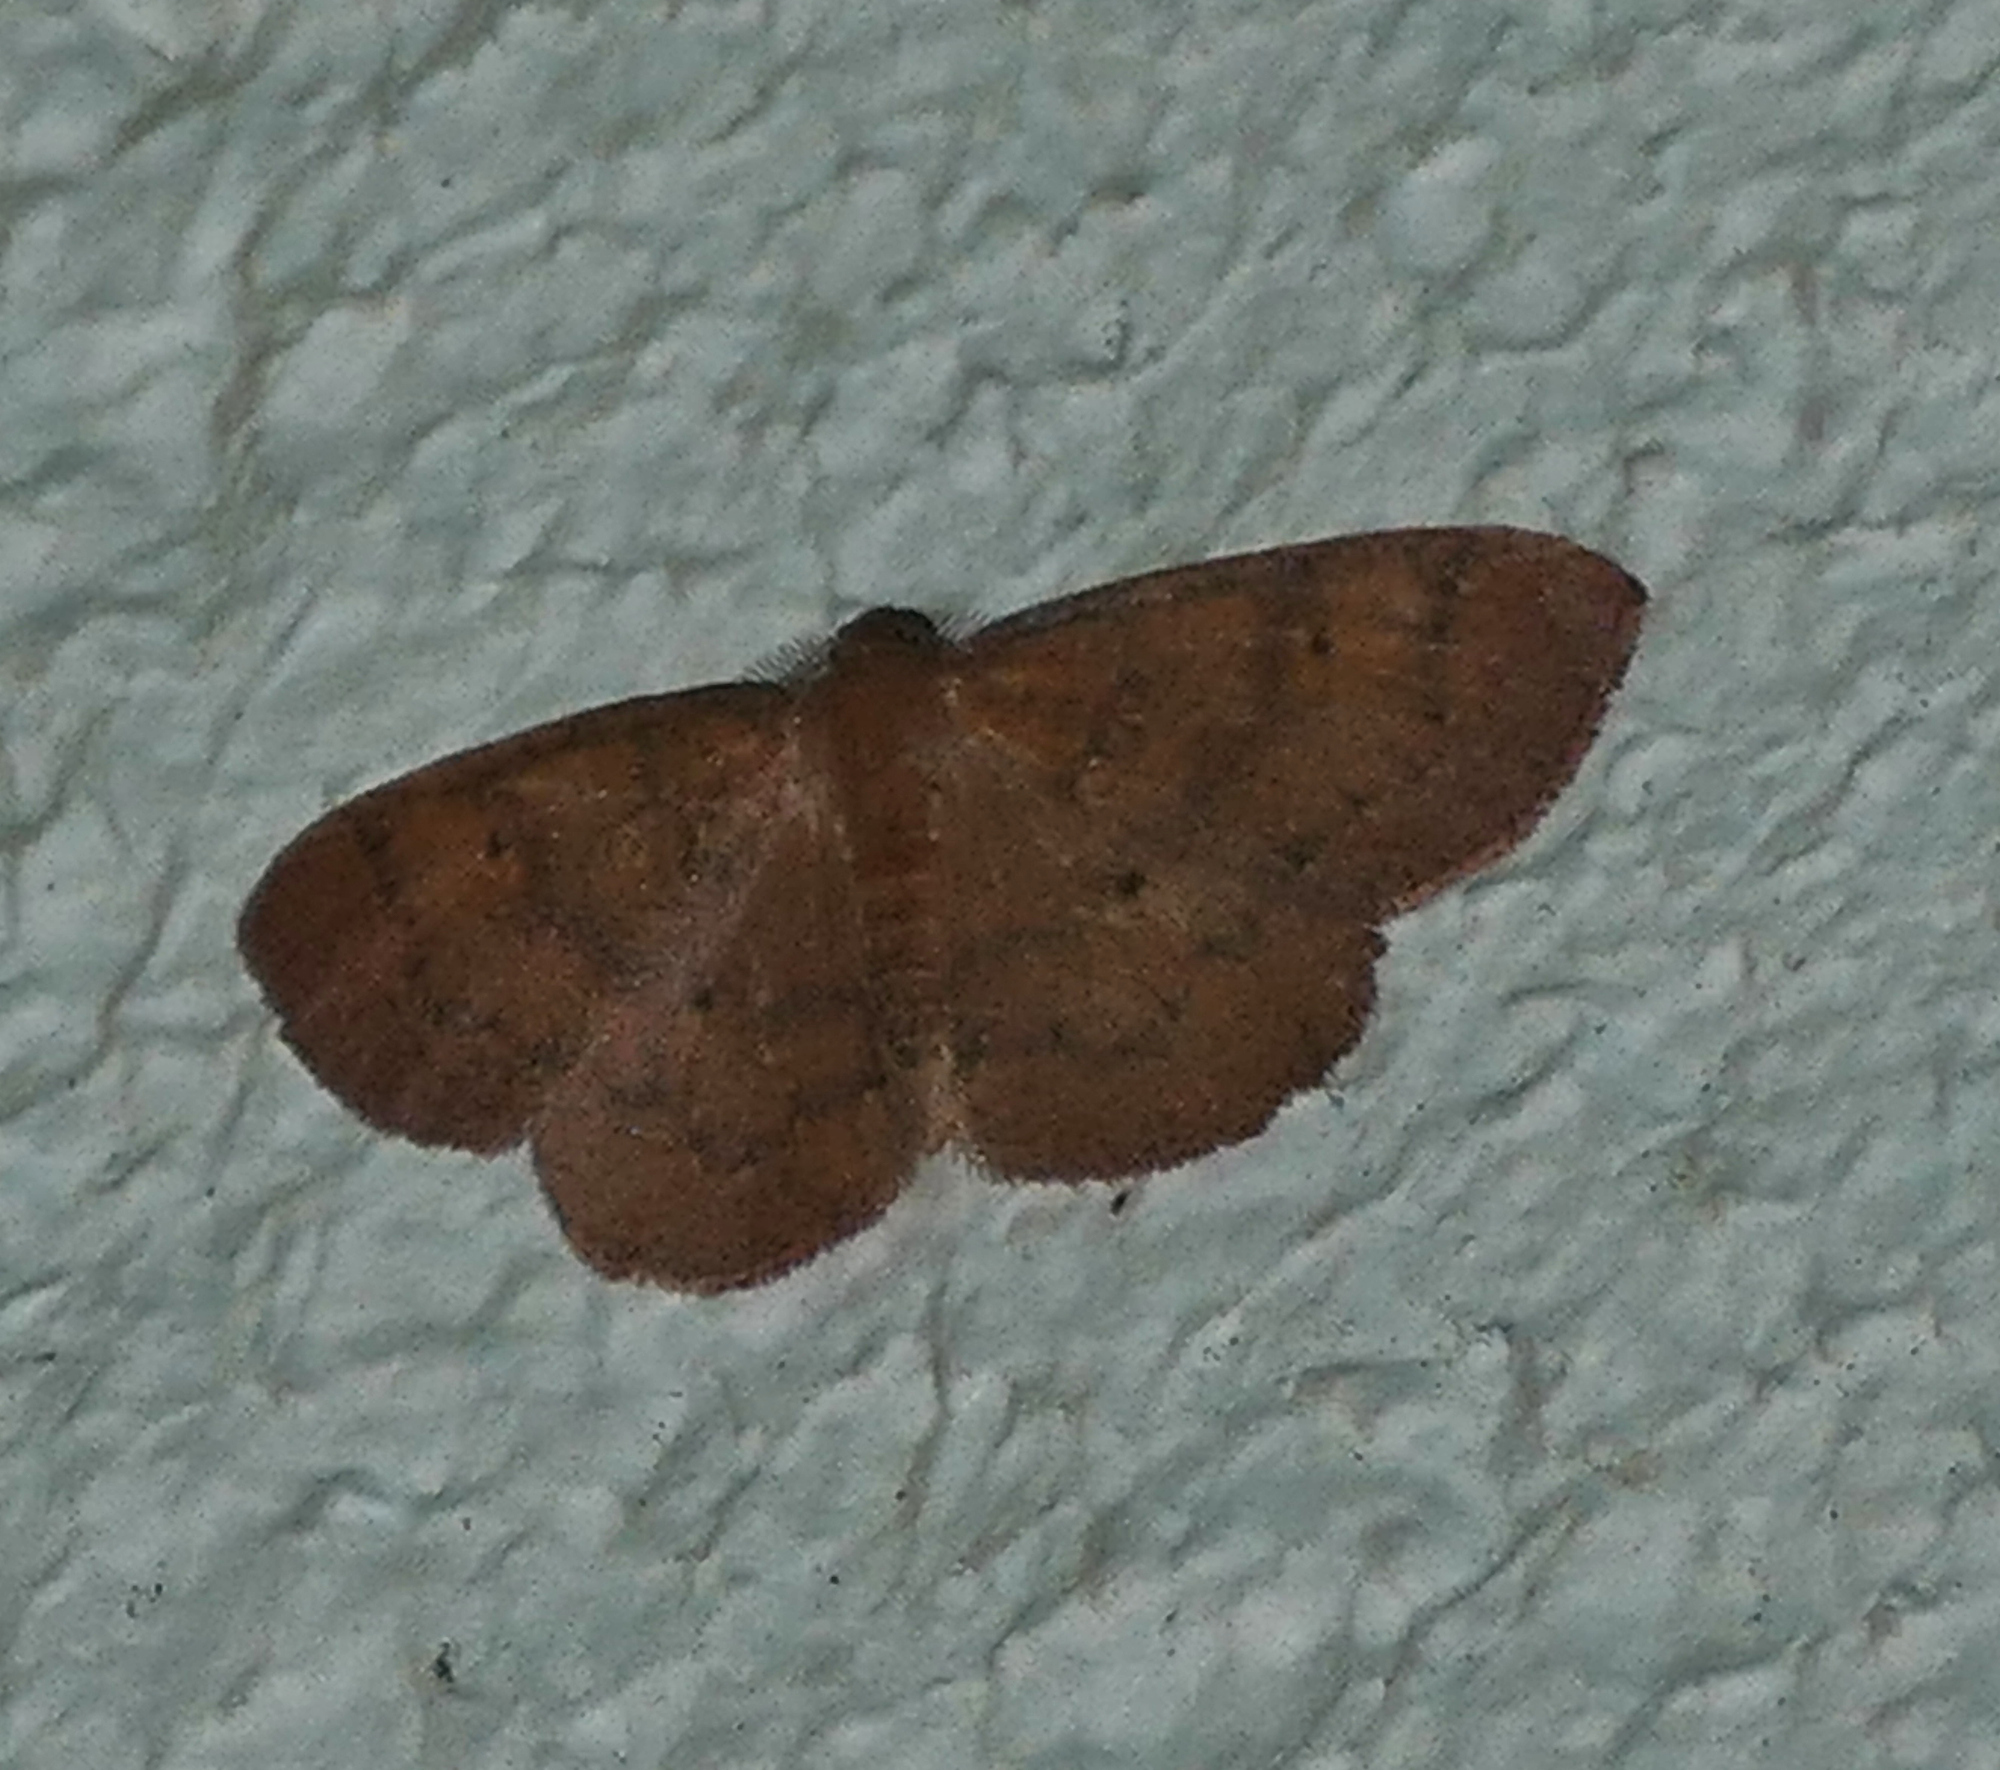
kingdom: Animalia
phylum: Arthropoda
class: Insecta
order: Lepidoptera
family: Geometridae
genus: Ilexia
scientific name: Ilexia intractata
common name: Black-dotted ruddy moth
